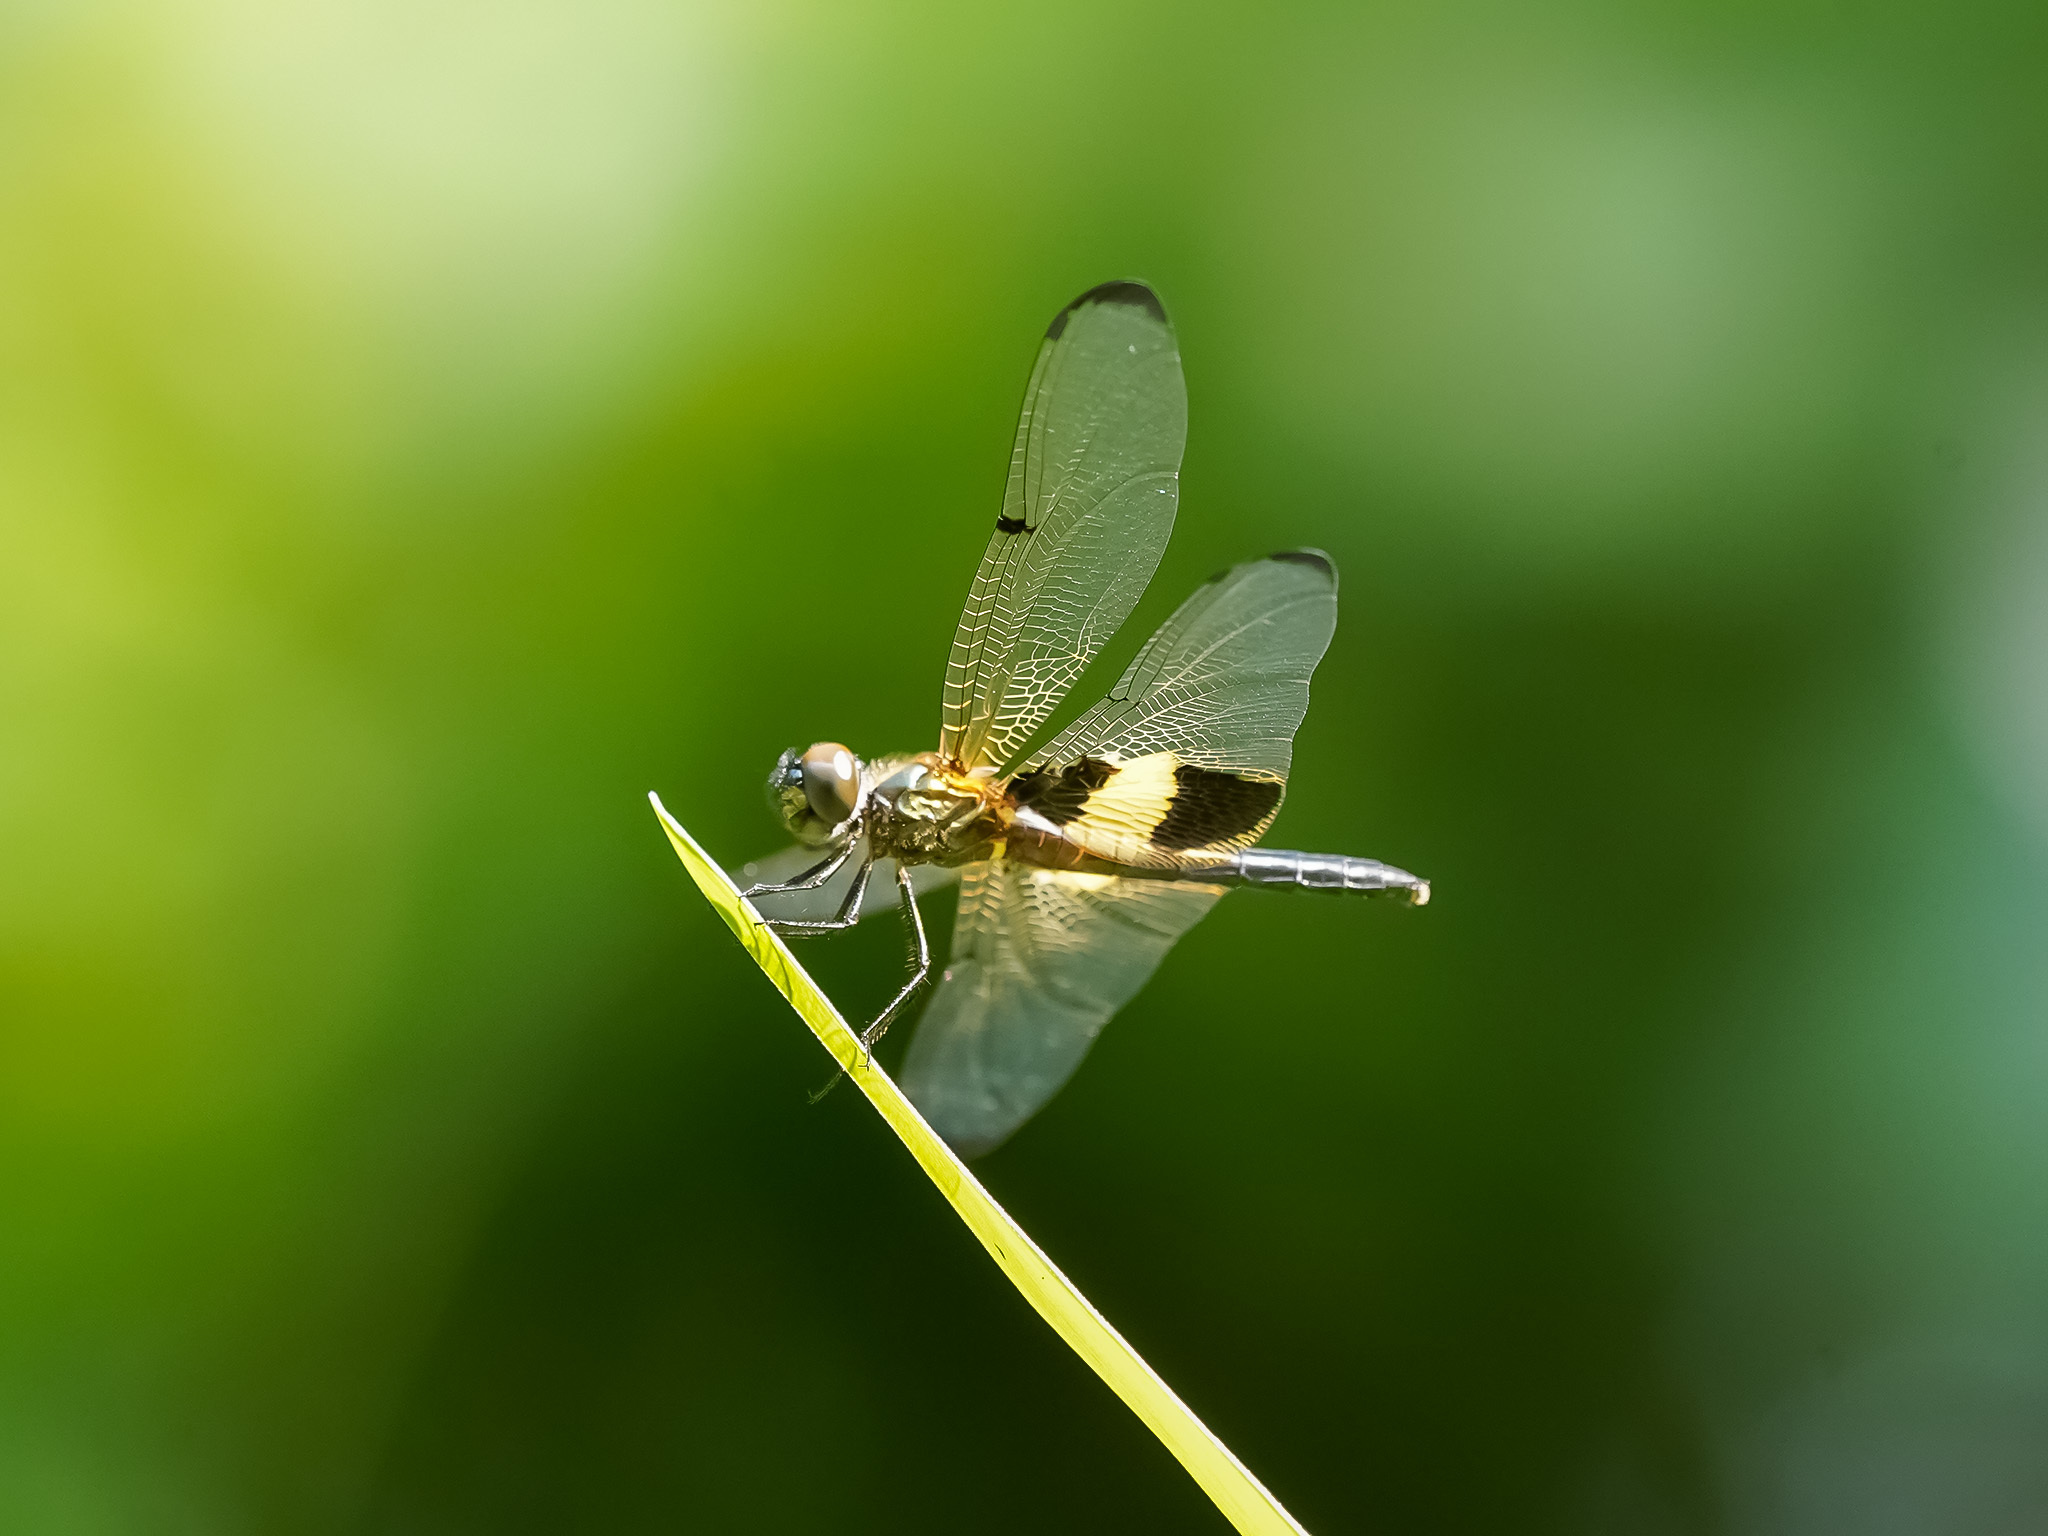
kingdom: Animalia
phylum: Arthropoda
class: Insecta
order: Odonata
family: Libellulidae
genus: Rhyothemis
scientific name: Rhyothemis phyllis
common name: Yellow-barred flutterer
